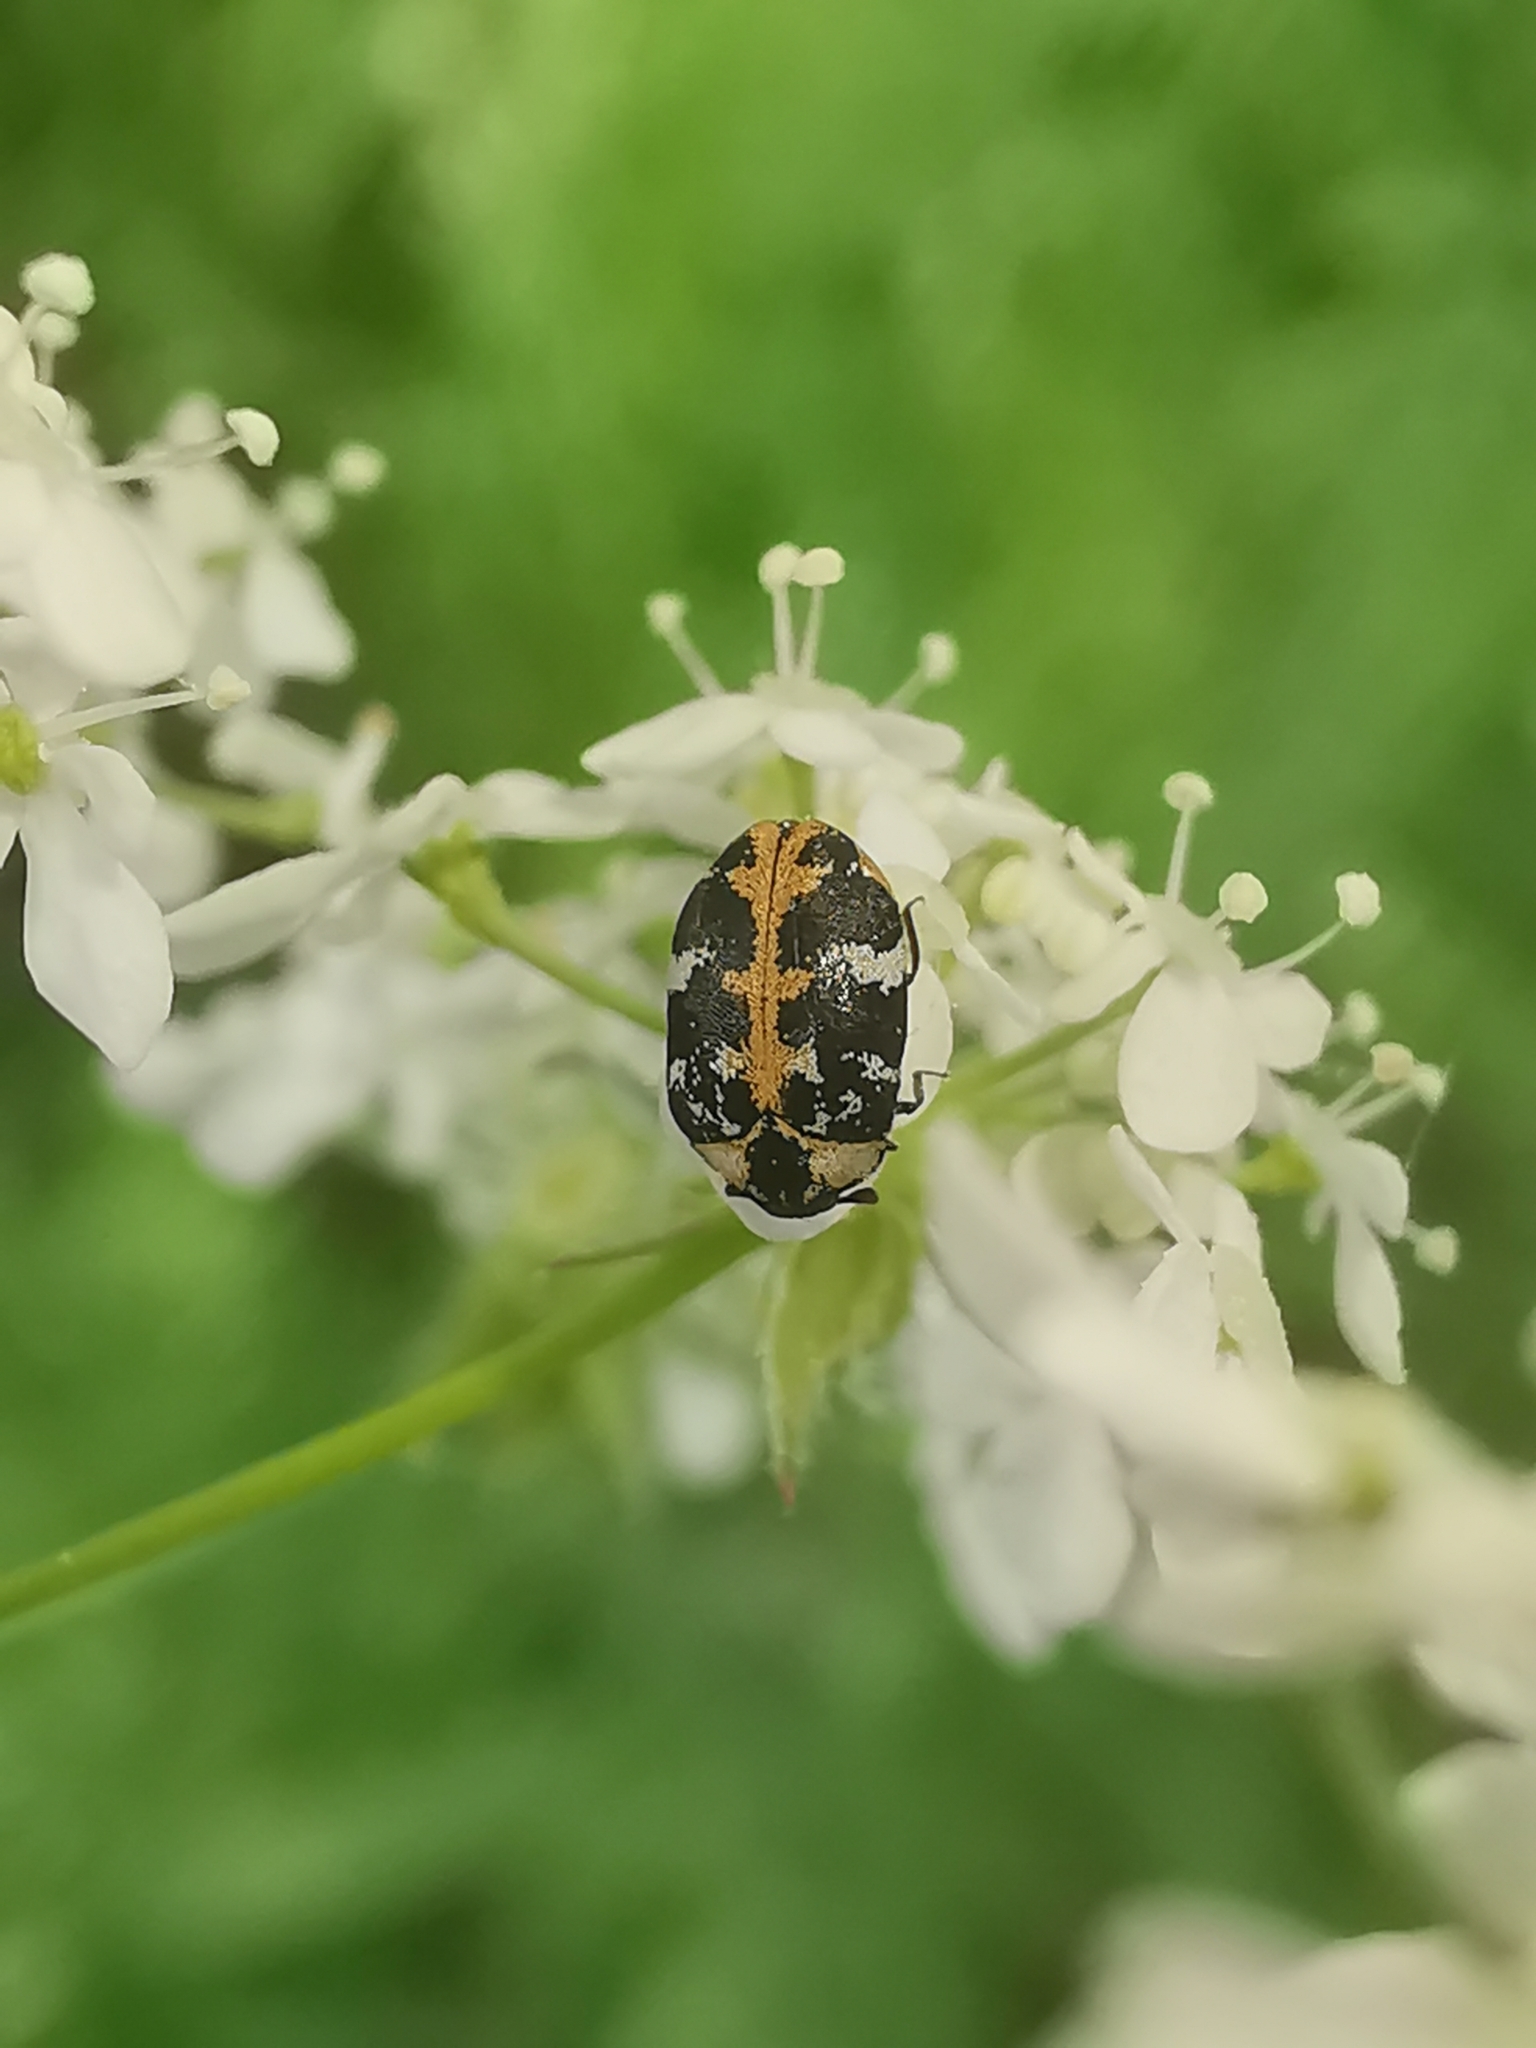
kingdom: Animalia
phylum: Arthropoda
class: Insecta
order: Coleoptera
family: Dermestidae
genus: Anthrenus
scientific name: Anthrenus scrophulariae
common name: Buffalo carpet beetle
